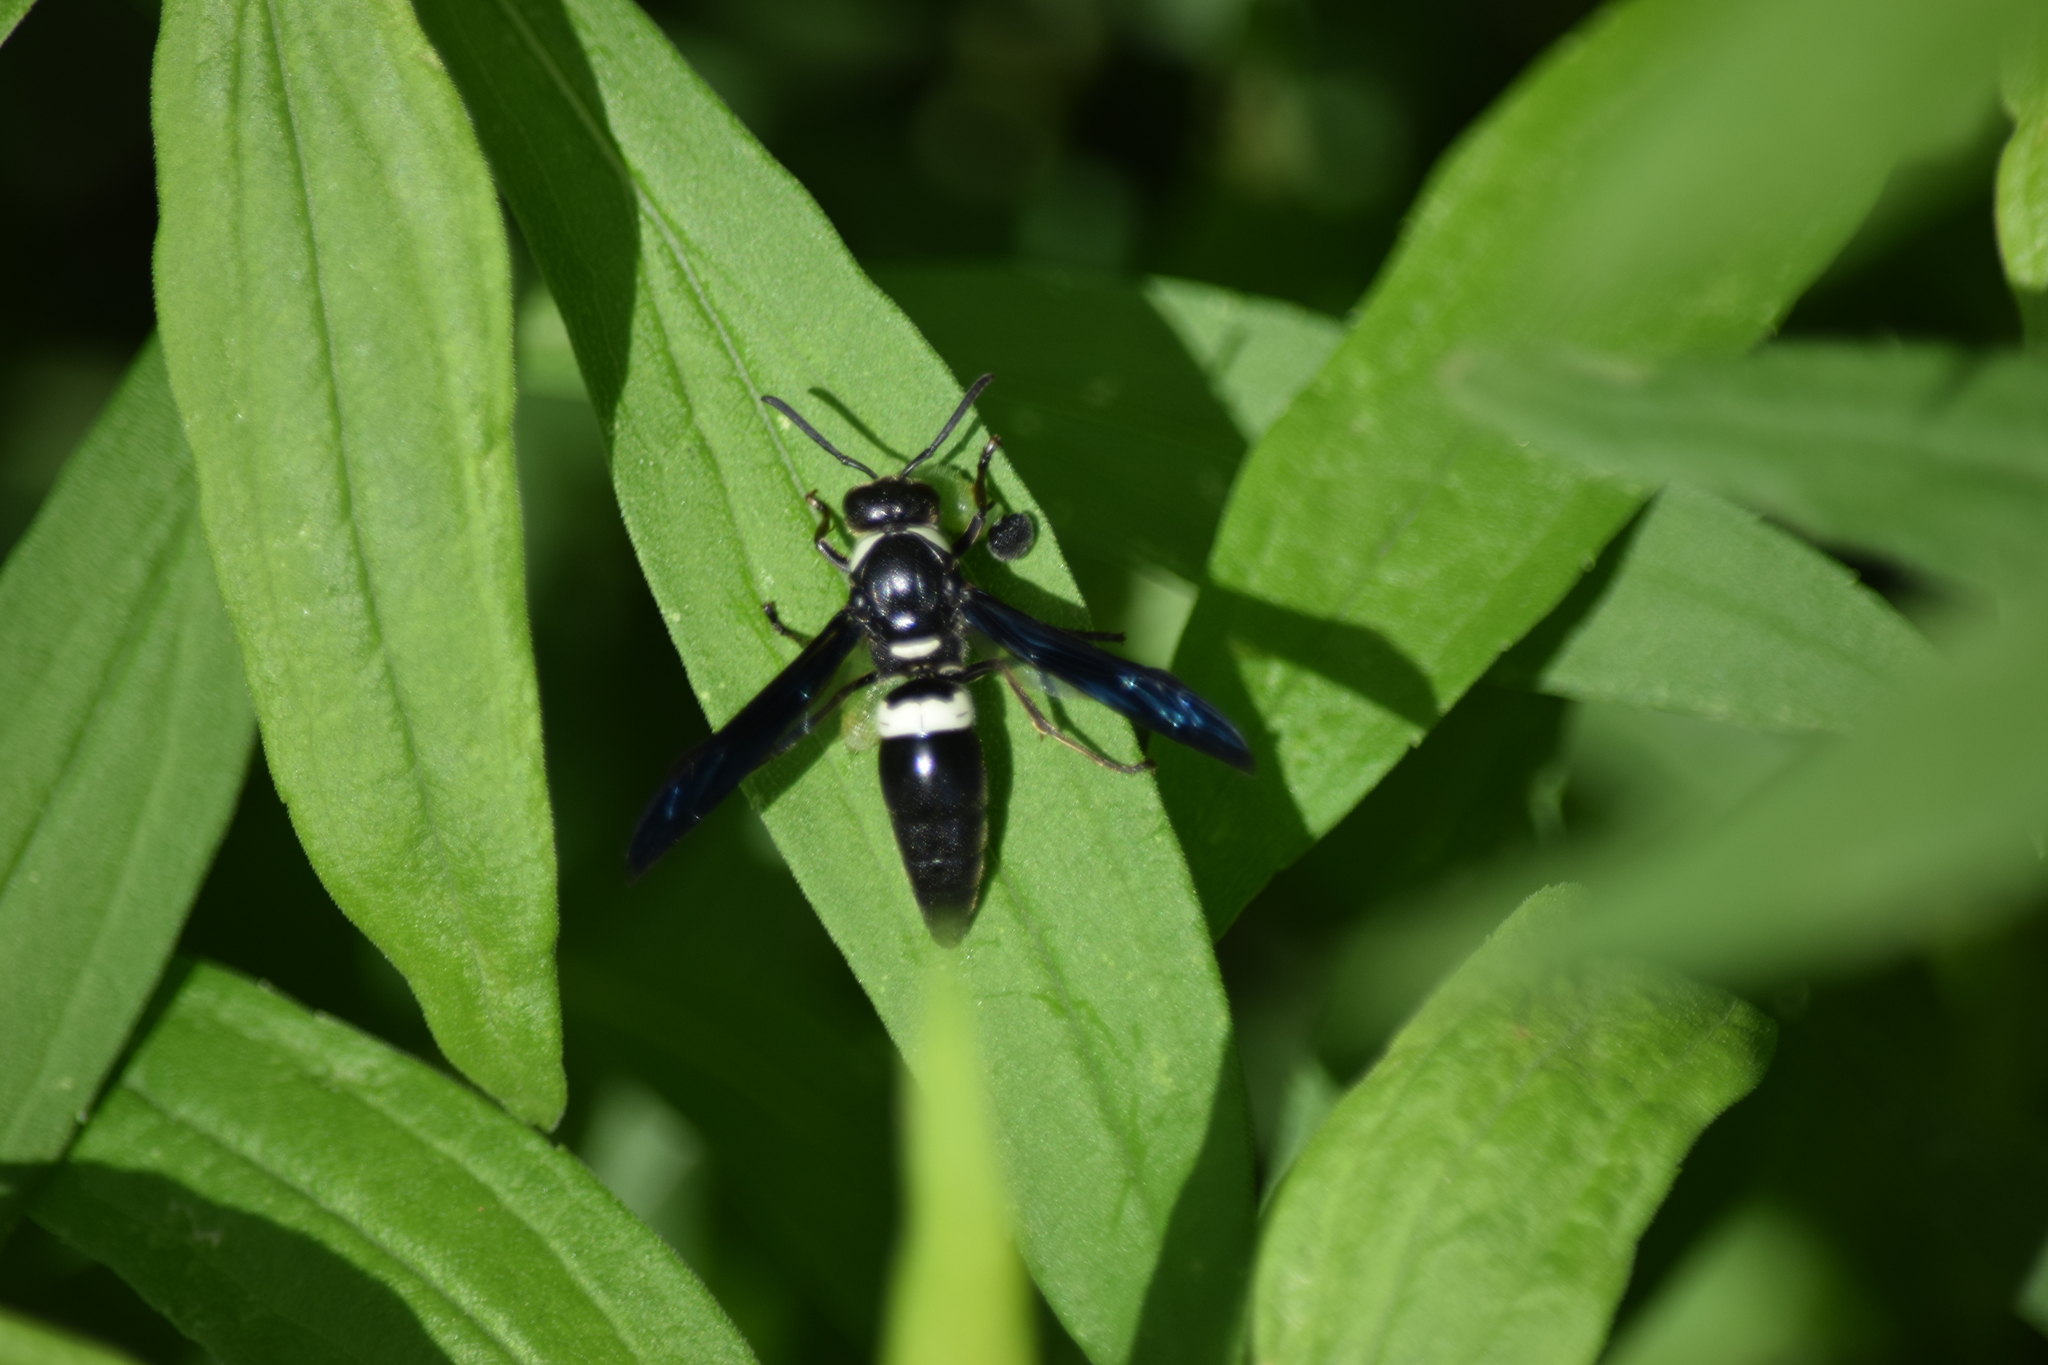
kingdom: Animalia
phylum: Arthropoda
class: Insecta
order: Hymenoptera
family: Eumenidae
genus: Monobia
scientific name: Monobia quadridens
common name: Four-toothed mason wasp
